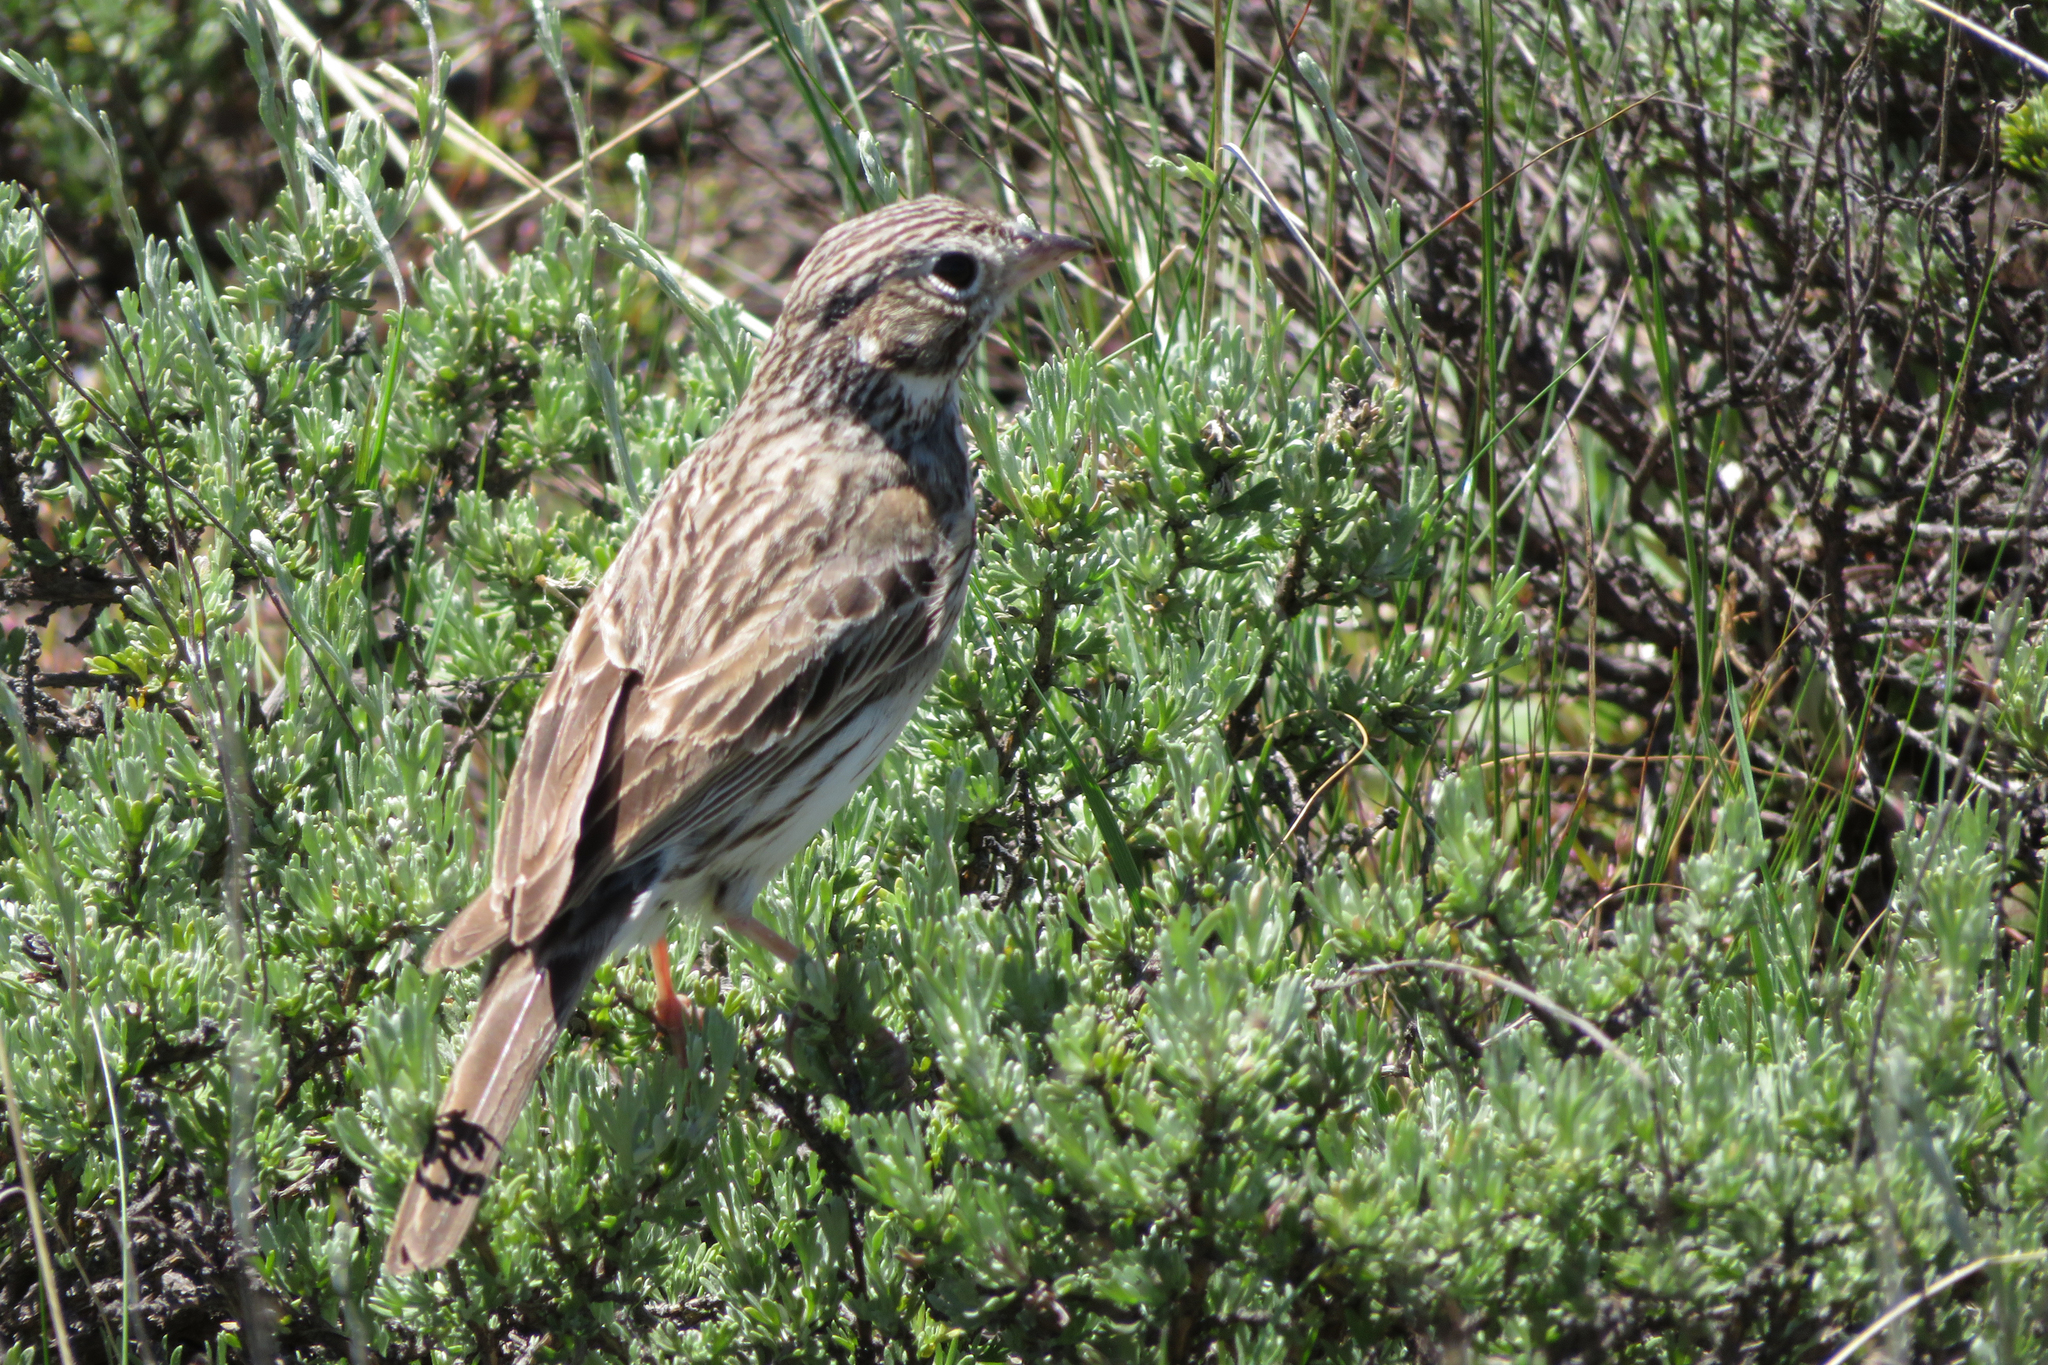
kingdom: Animalia
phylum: Chordata
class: Aves
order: Passeriformes
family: Passerellidae
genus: Pooecetes
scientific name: Pooecetes gramineus
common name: Vesper sparrow
